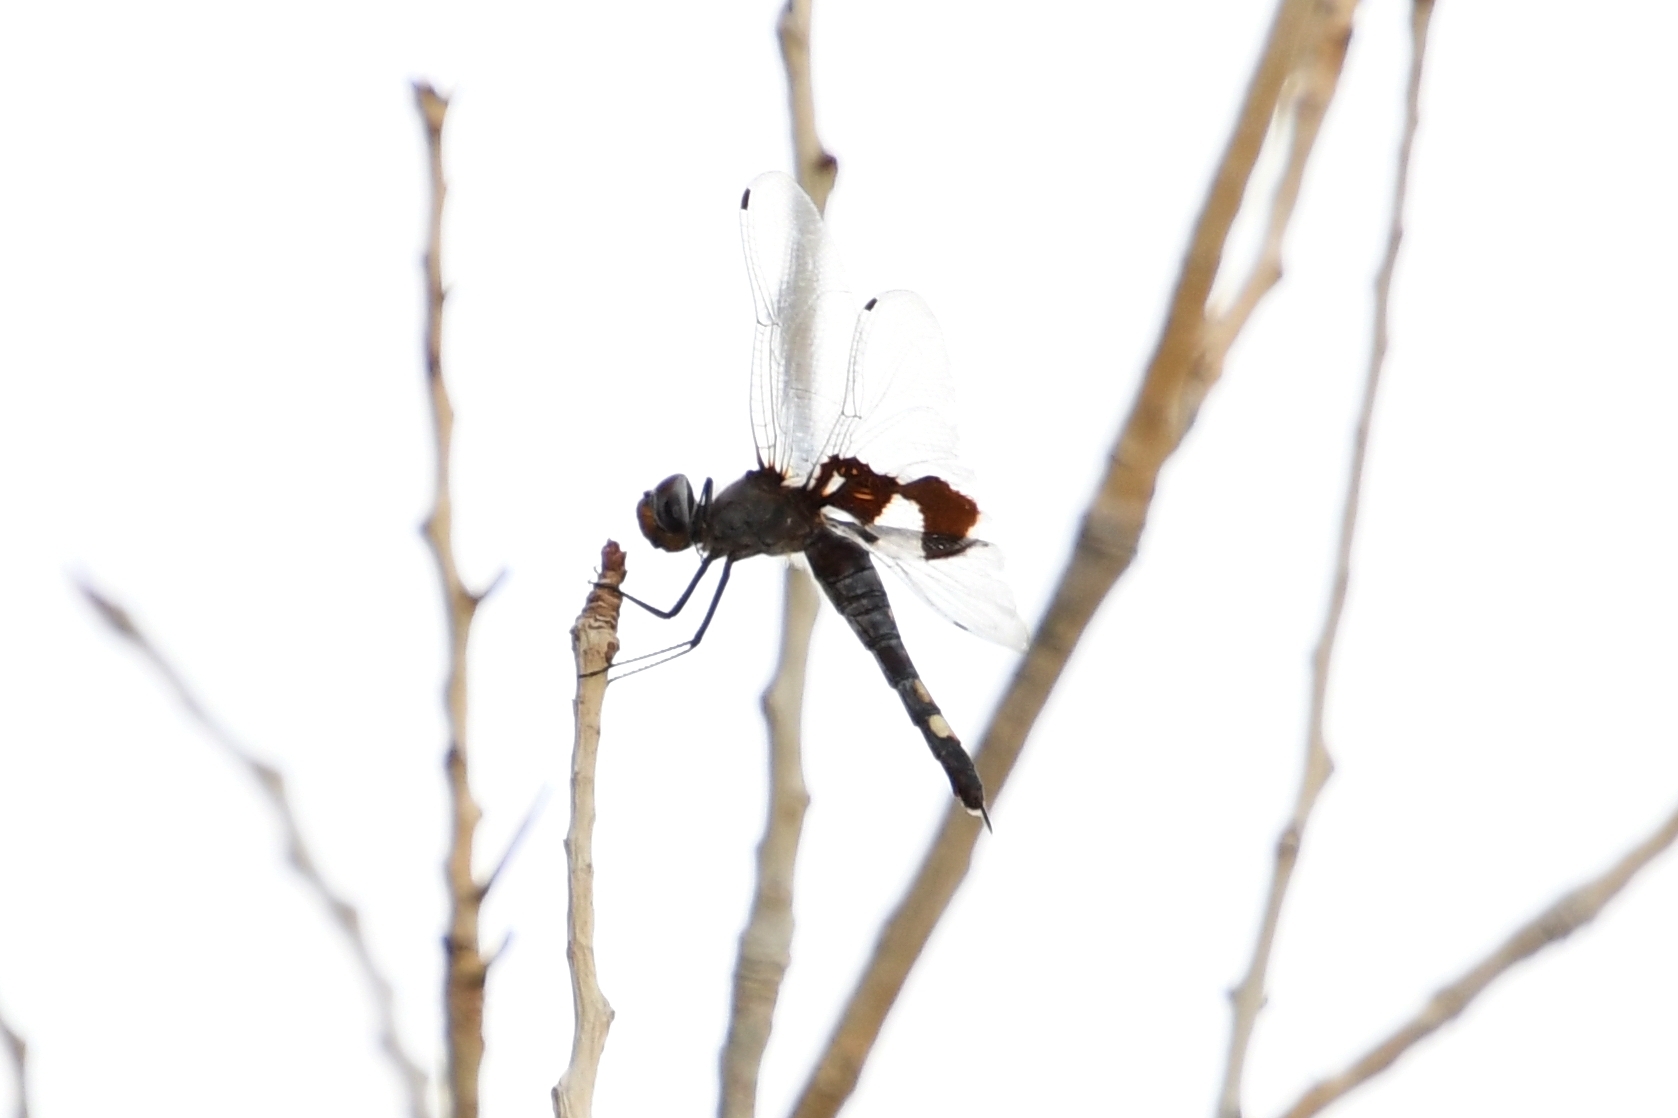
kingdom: Animalia
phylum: Arthropoda
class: Insecta
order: Odonata
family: Libellulidae
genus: Tramea
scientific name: Tramea lacerata
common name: Black saddlebags
